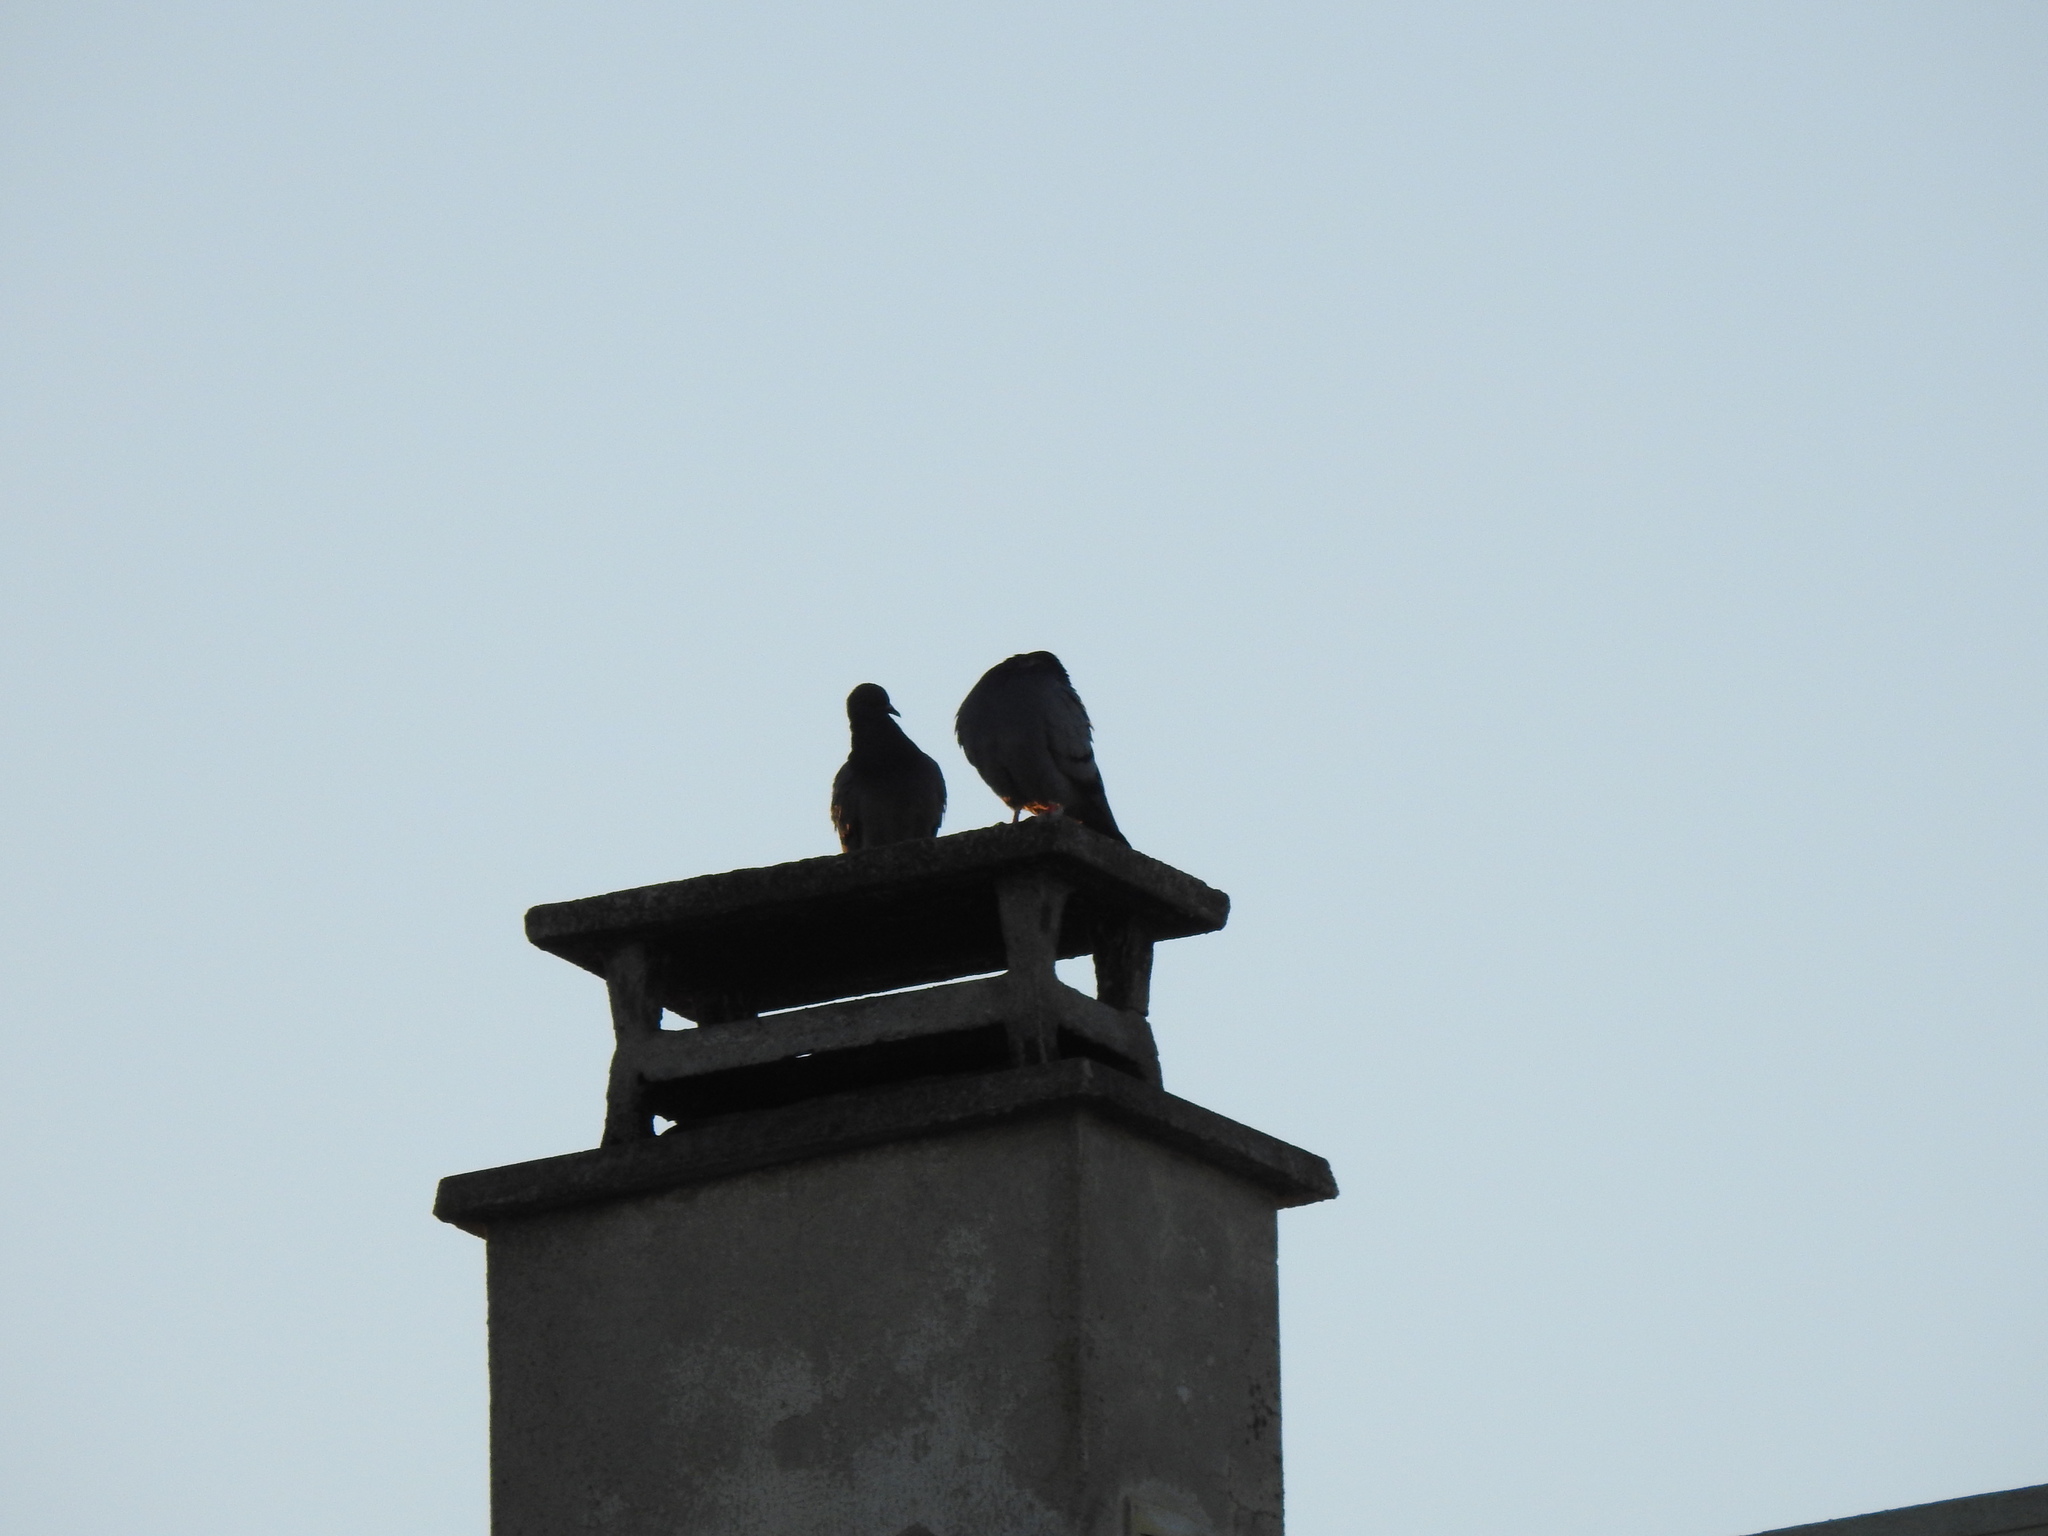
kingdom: Animalia
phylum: Chordata
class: Aves
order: Columbiformes
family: Columbidae
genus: Columba
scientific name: Columba livia
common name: Rock pigeon
